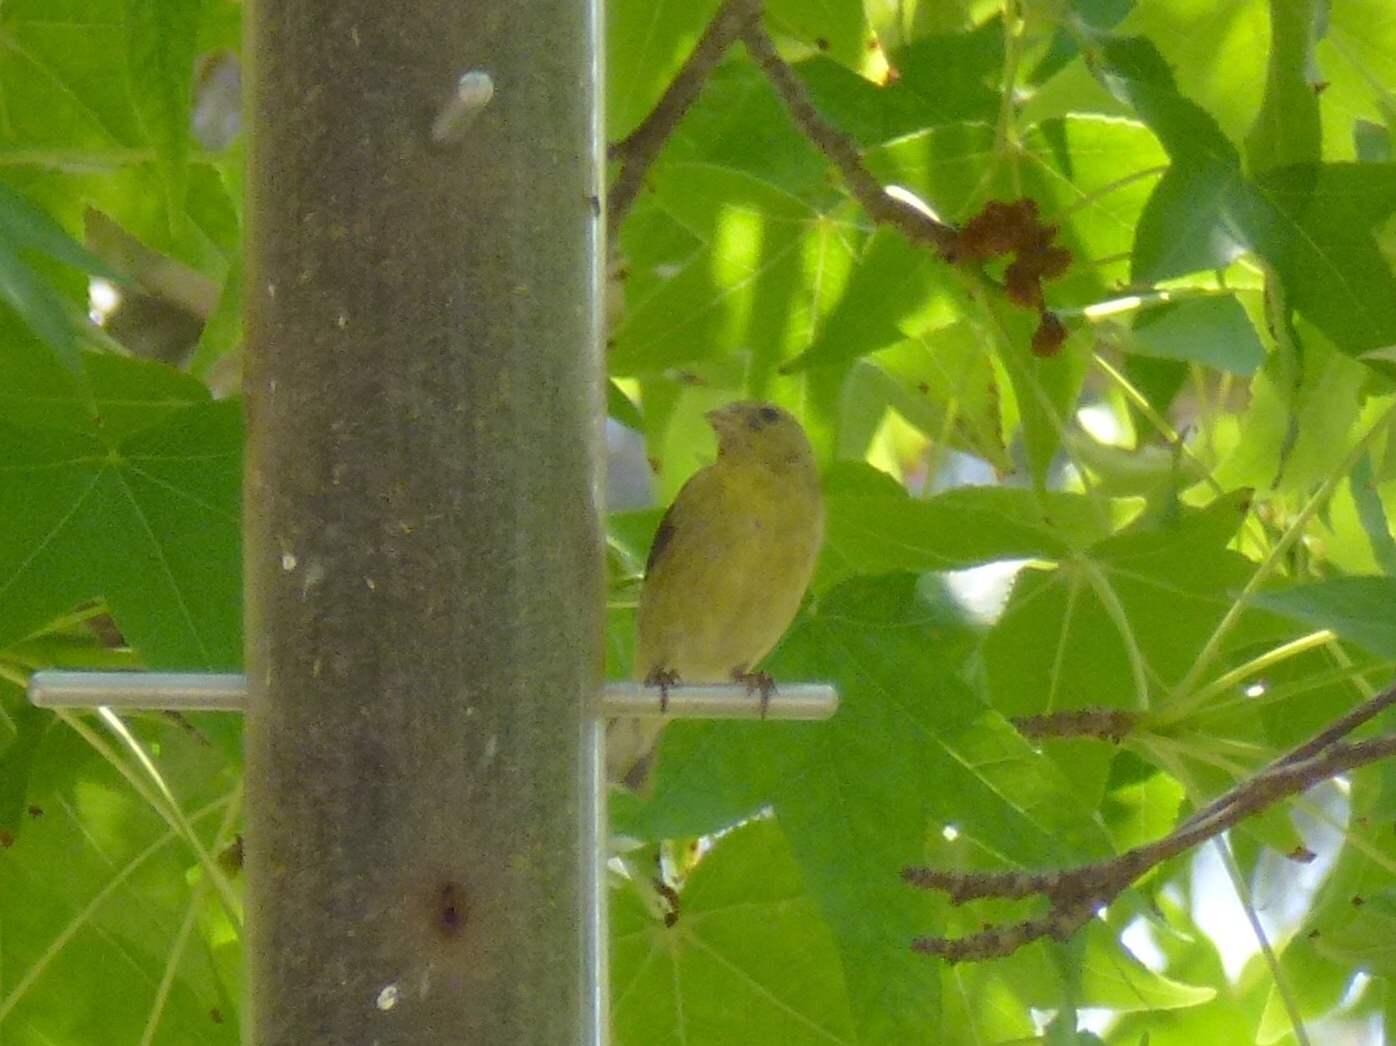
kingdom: Animalia
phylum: Chordata
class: Aves
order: Passeriformes
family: Fringillidae
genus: Spinus
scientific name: Spinus psaltria
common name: Lesser goldfinch
